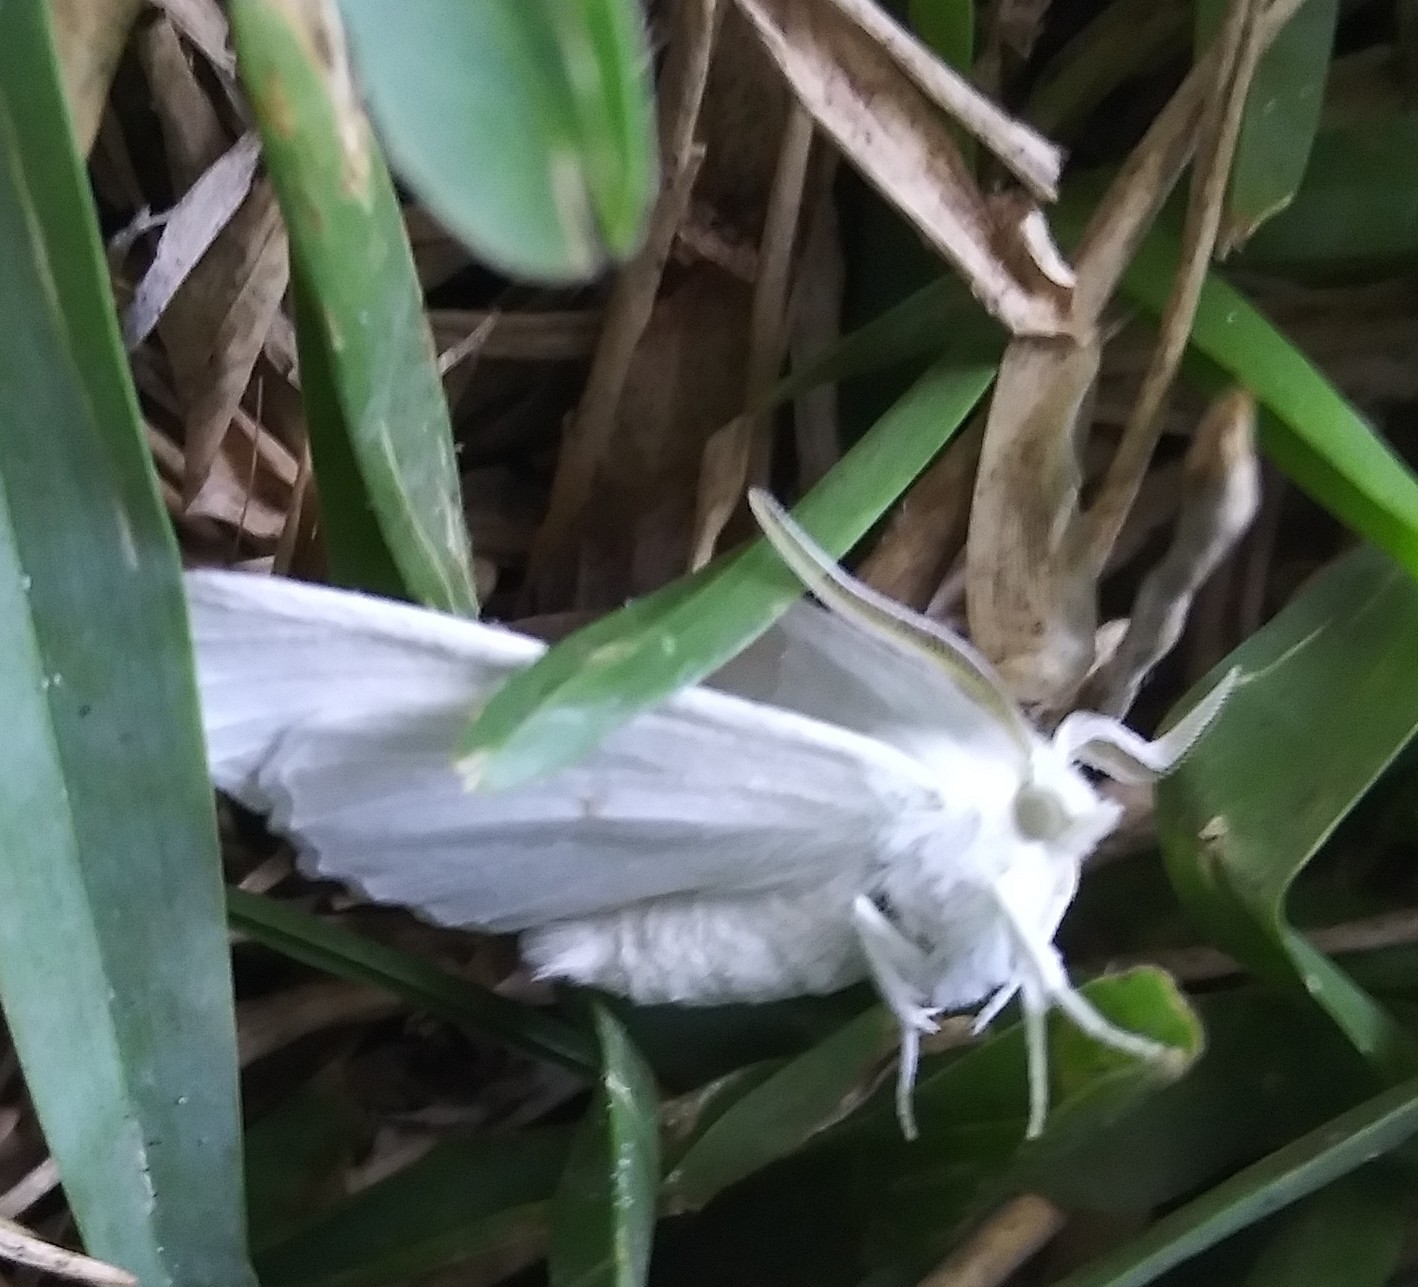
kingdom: Animalia
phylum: Arthropoda
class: Insecta
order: Lepidoptera
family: Geometridae
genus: Ennomos
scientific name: Ennomos subsignaria
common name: Elm spanworm
